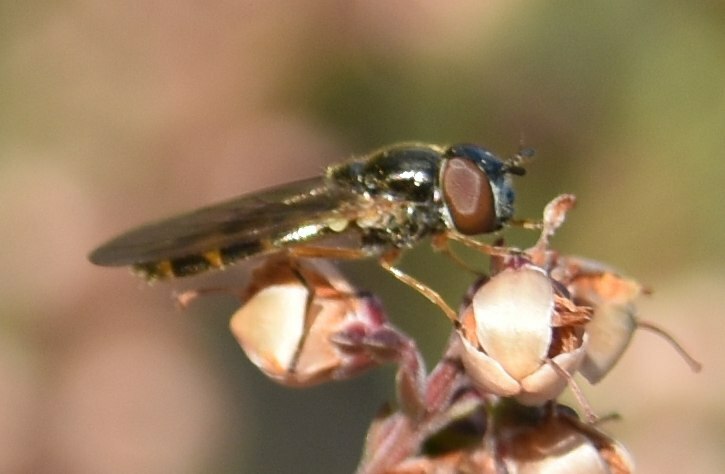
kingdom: Animalia
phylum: Arthropoda
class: Insecta
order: Diptera
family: Syrphidae
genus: Melanostoma
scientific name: Melanostoma
